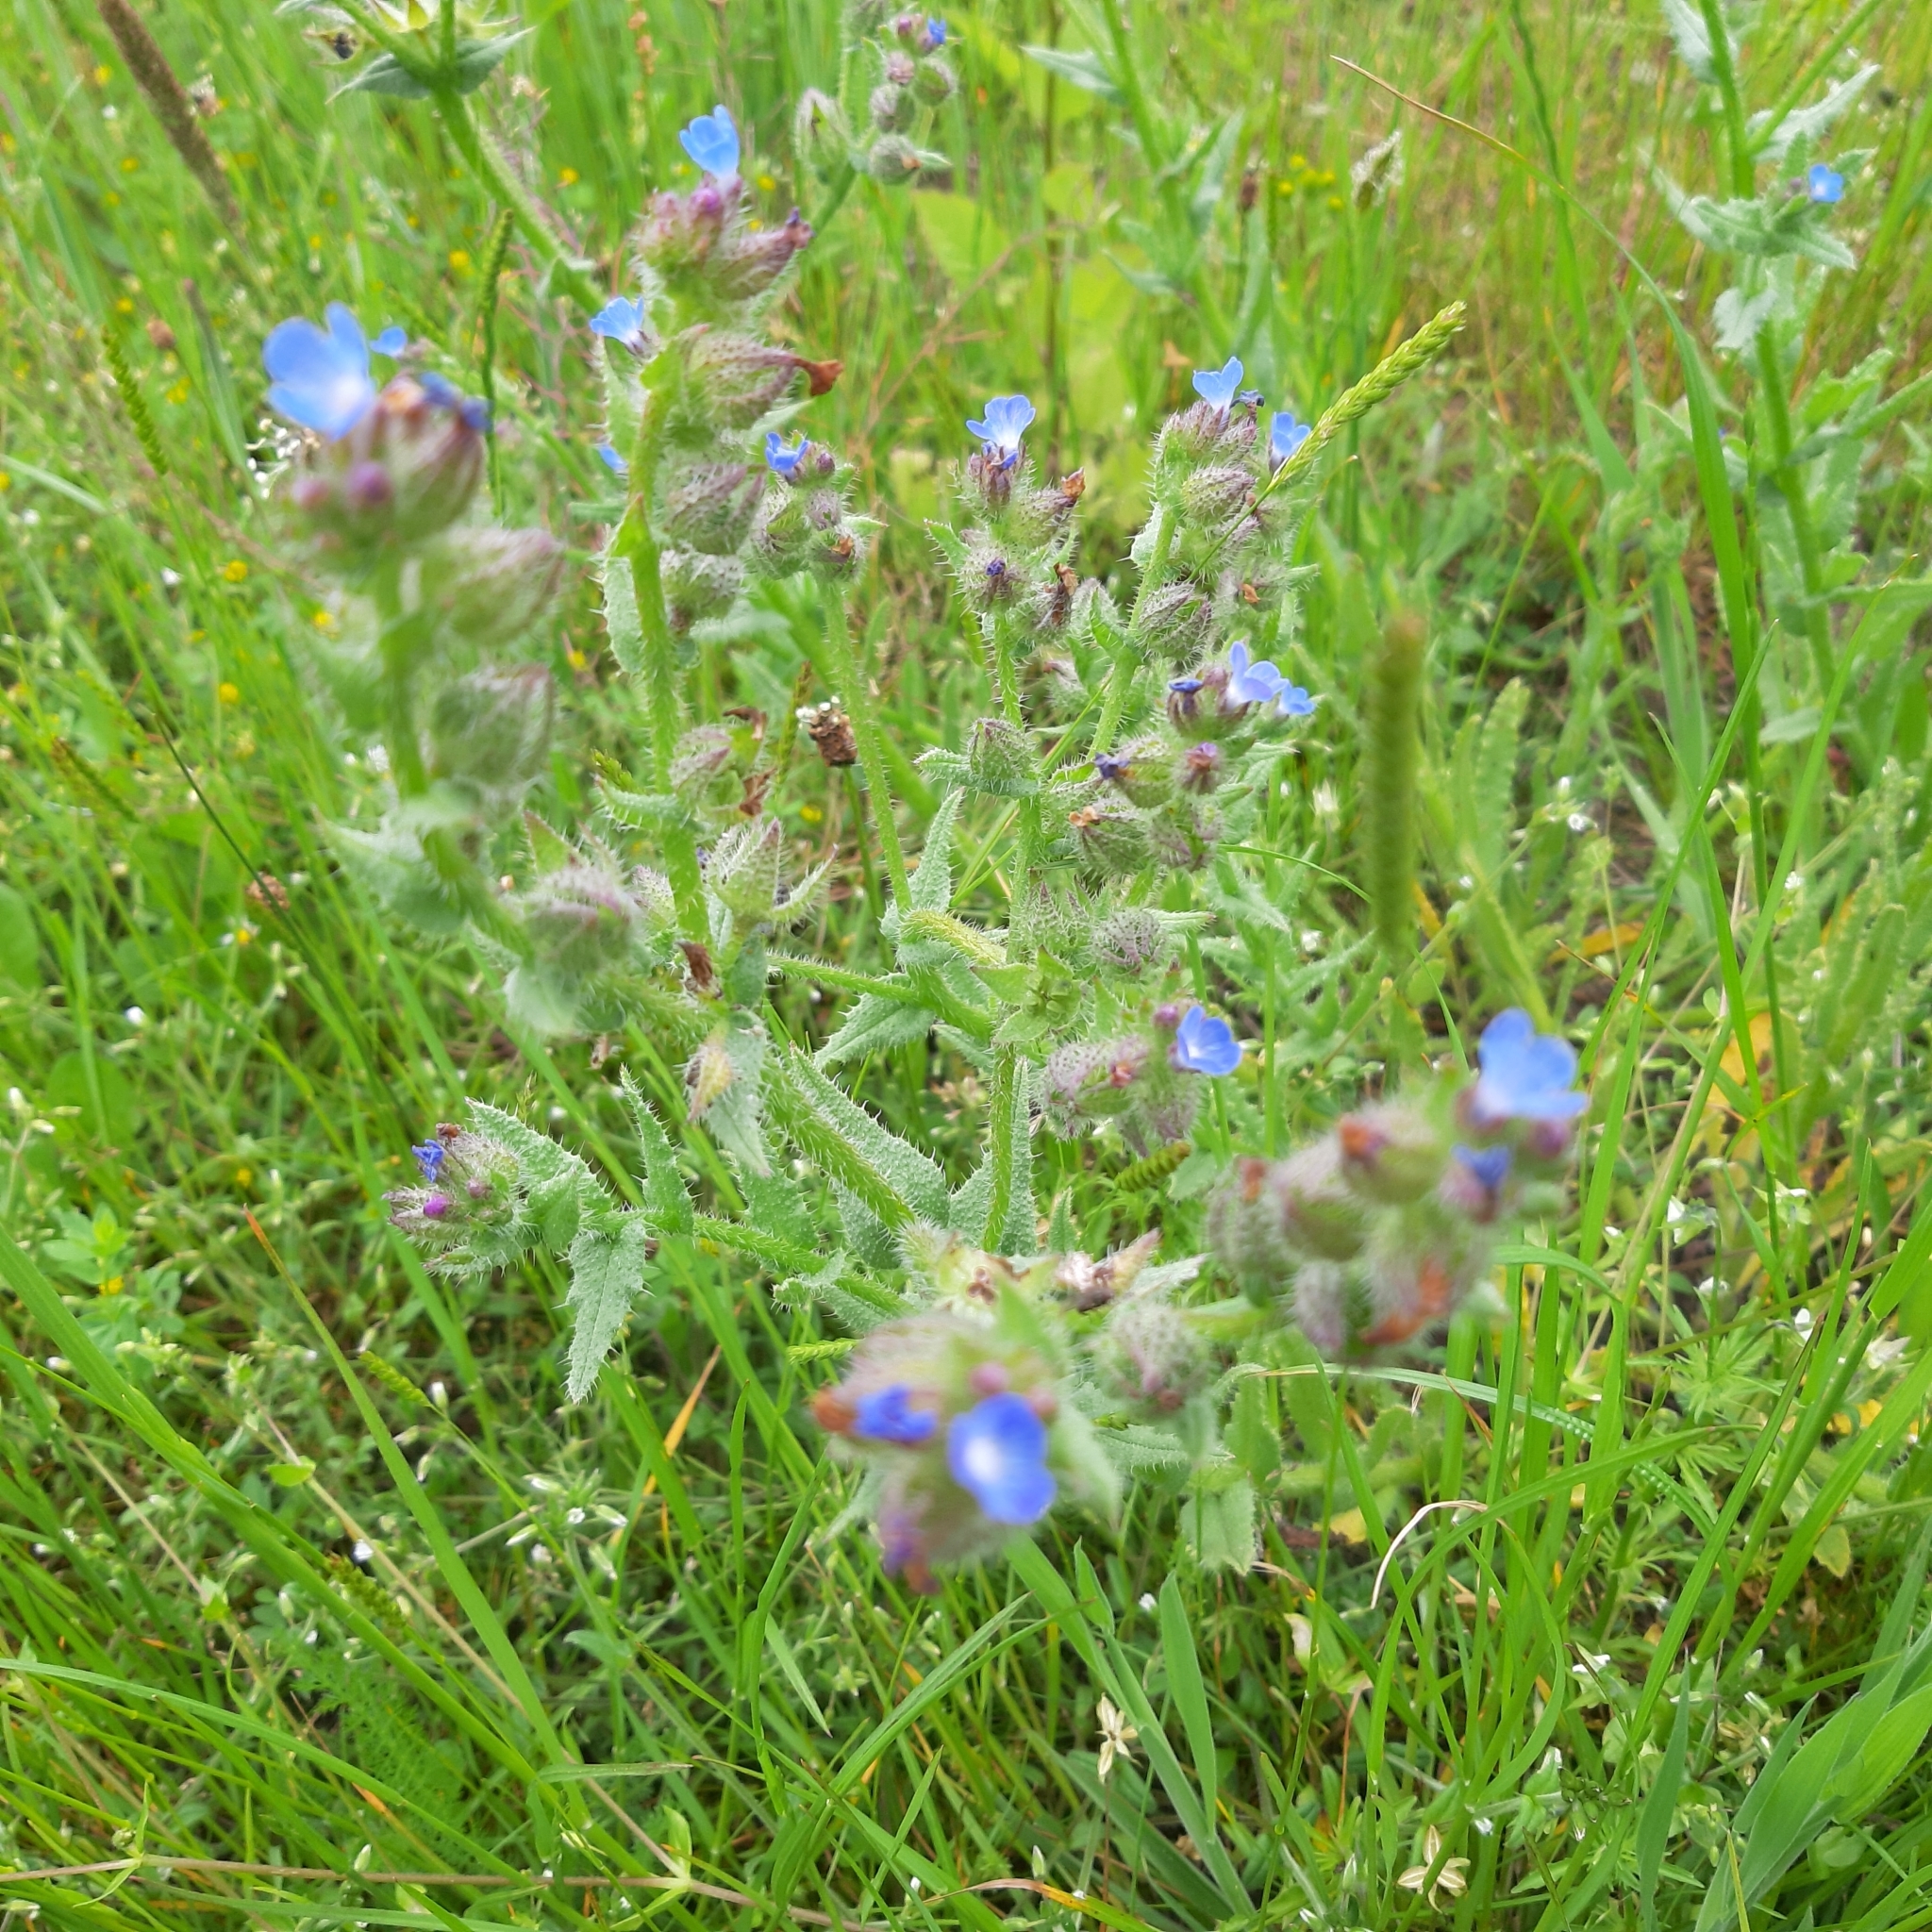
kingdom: Plantae
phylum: Tracheophyta
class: Magnoliopsida
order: Boraginales
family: Boraginaceae
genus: Lycopsis
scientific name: Lycopsis arvensis
